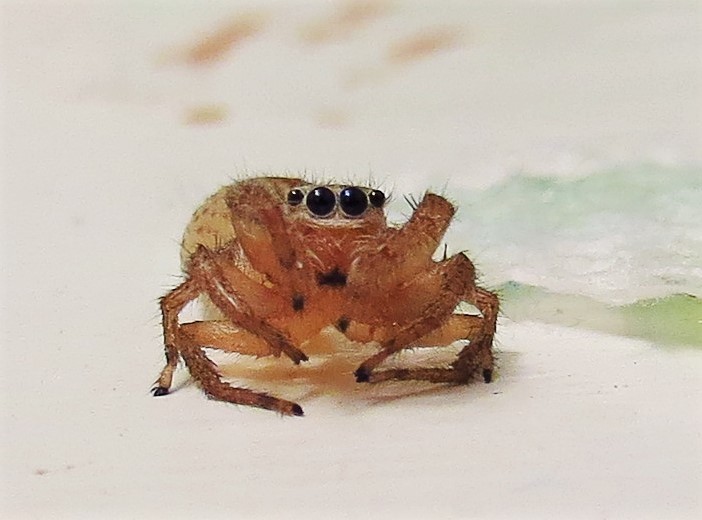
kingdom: Animalia
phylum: Arthropoda
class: Arachnida
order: Araneae
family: Salticidae
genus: Maevia
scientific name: Maevia inclemens
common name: Dimorphic jumper
